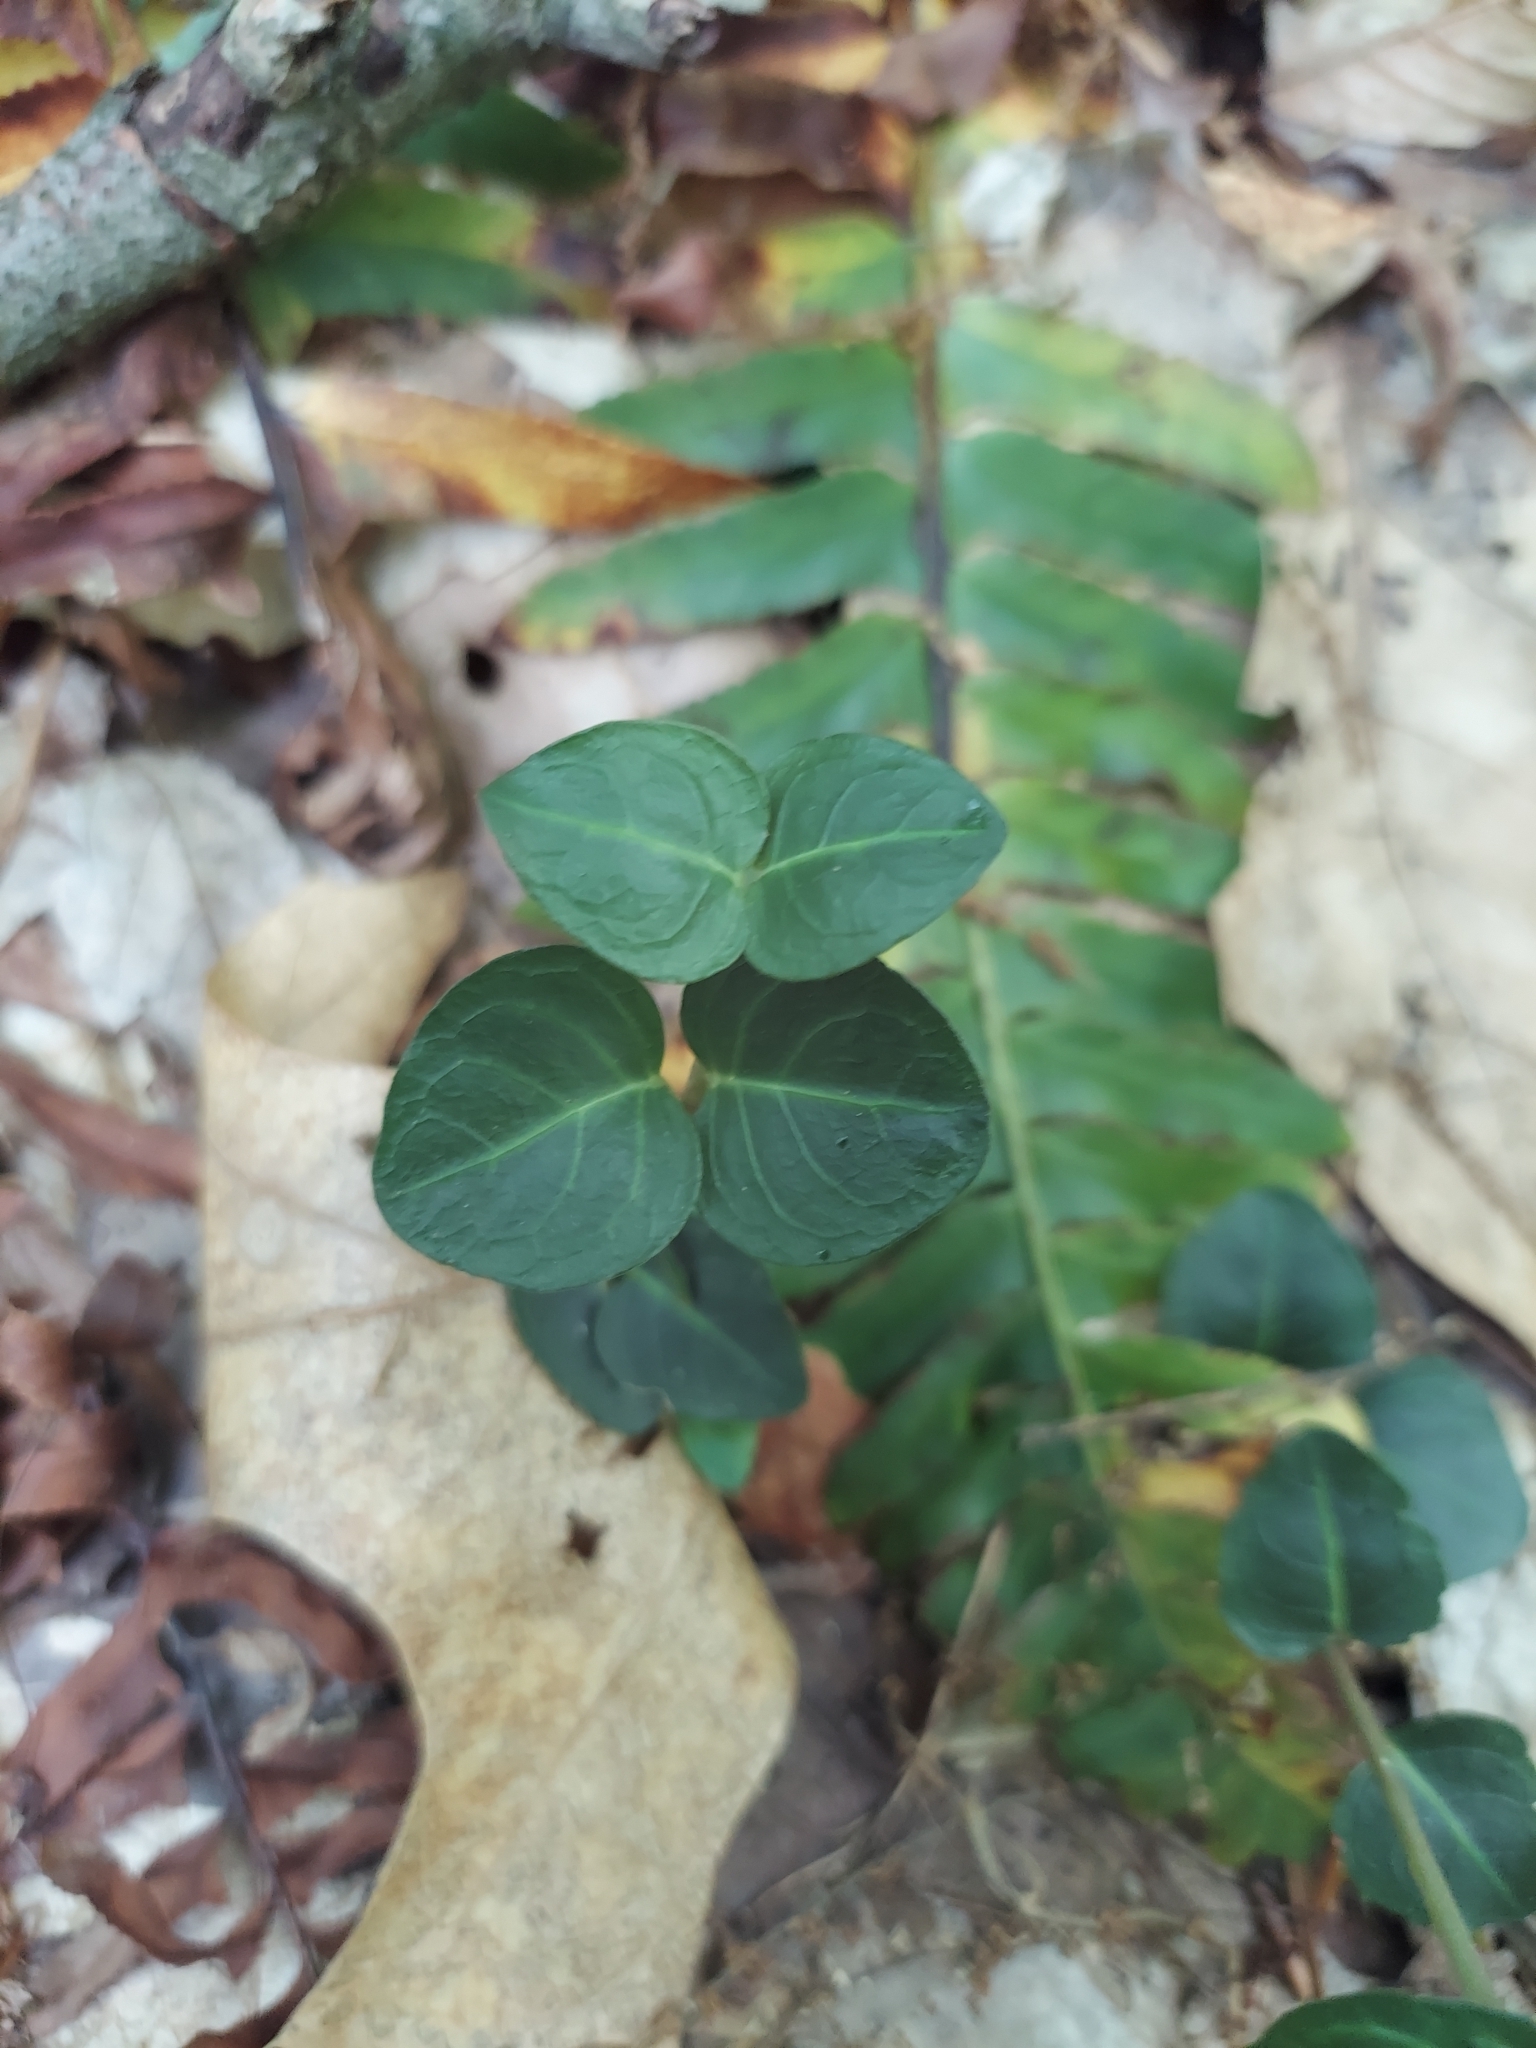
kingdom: Plantae
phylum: Tracheophyta
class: Magnoliopsida
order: Gentianales
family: Rubiaceae
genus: Mitchella
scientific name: Mitchella repens
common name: Partridge-berry
